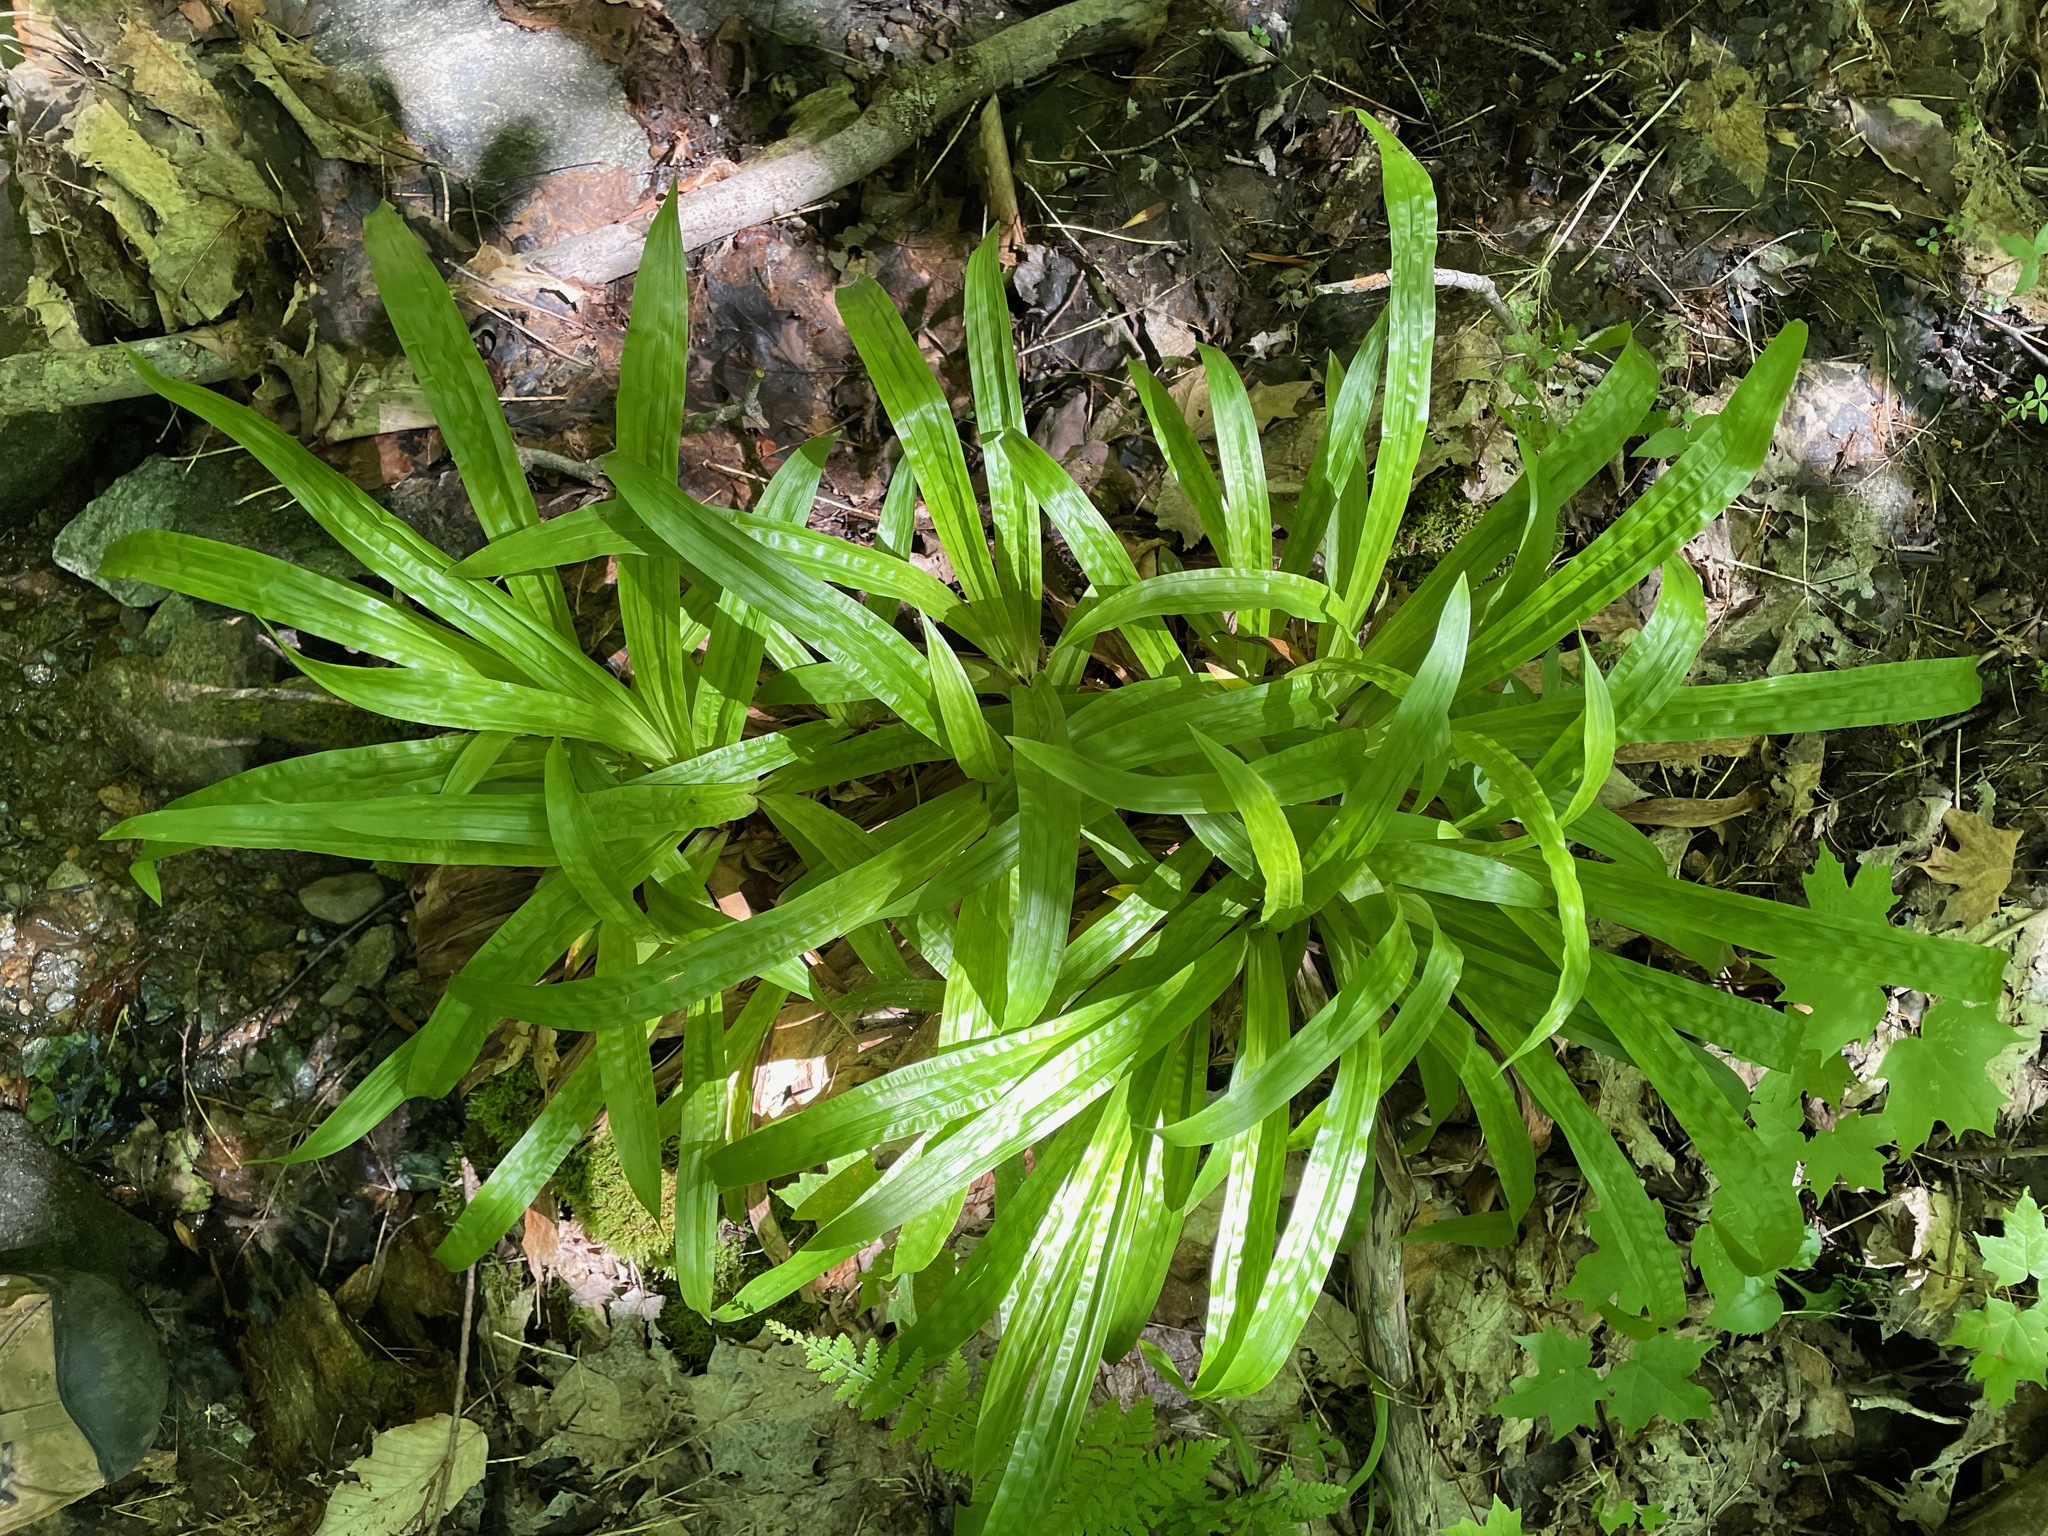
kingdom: Plantae
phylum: Tracheophyta
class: Liliopsida
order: Poales
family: Cyperaceae
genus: Carex
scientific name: Carex plantaginea
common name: Plantain-leaved sedge
